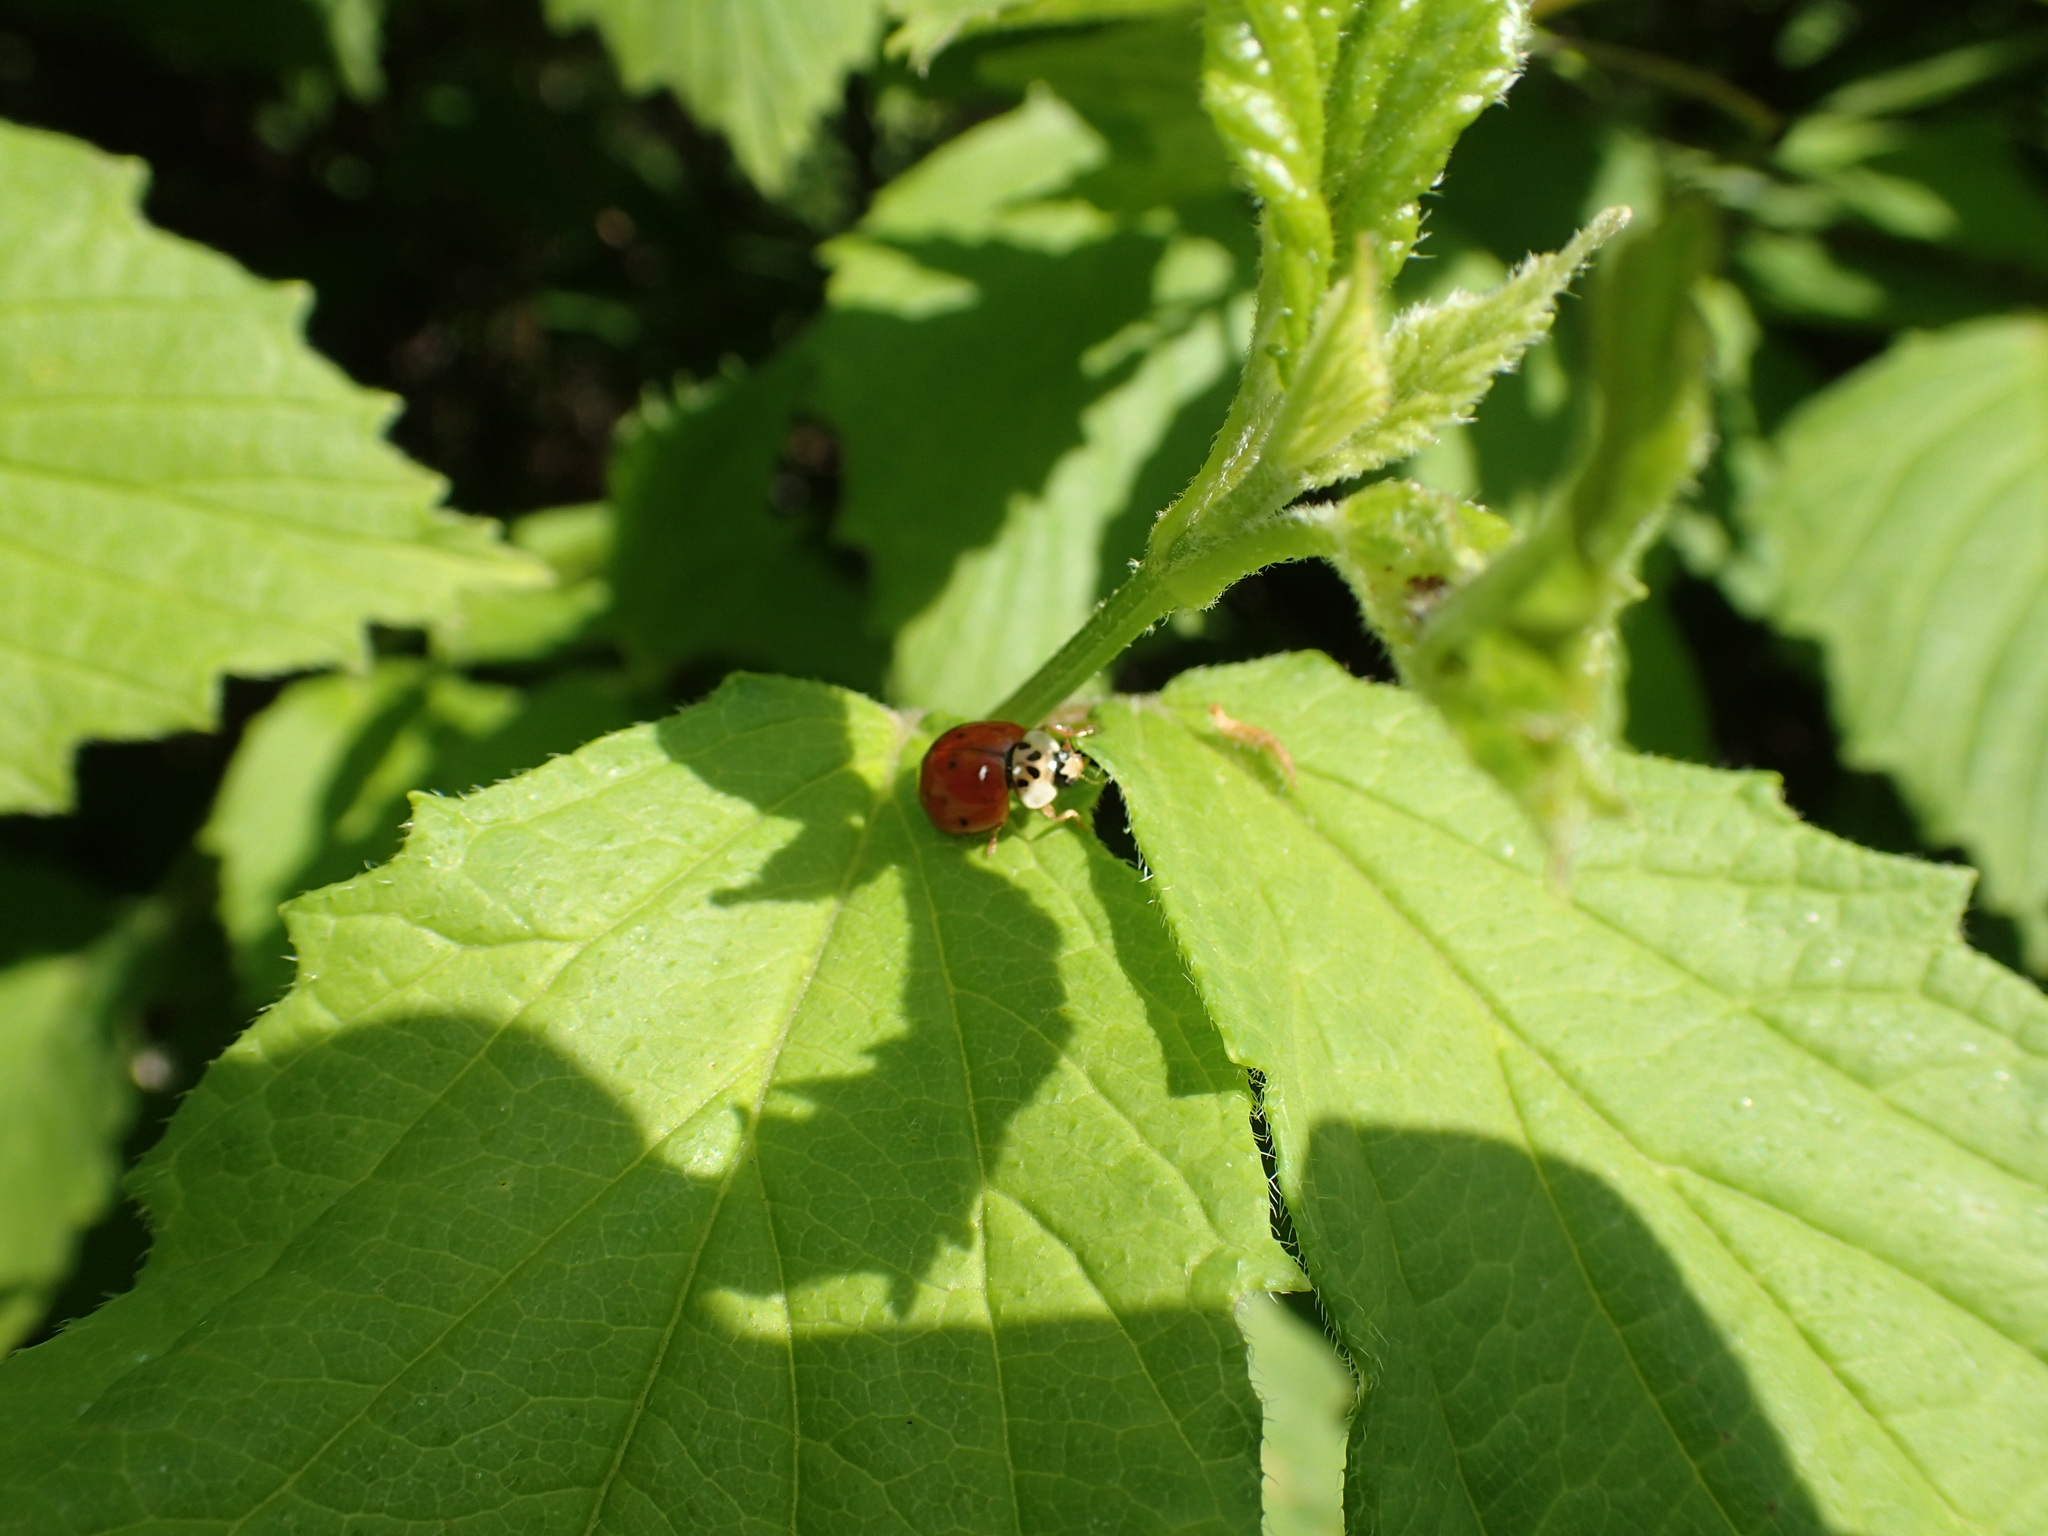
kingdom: Animalia
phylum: Arthropoda
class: Insecta
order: Coleoptera
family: Coccinellidae
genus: Harmonia
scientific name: Harmonia axyridis
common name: Harlequin ladybird
